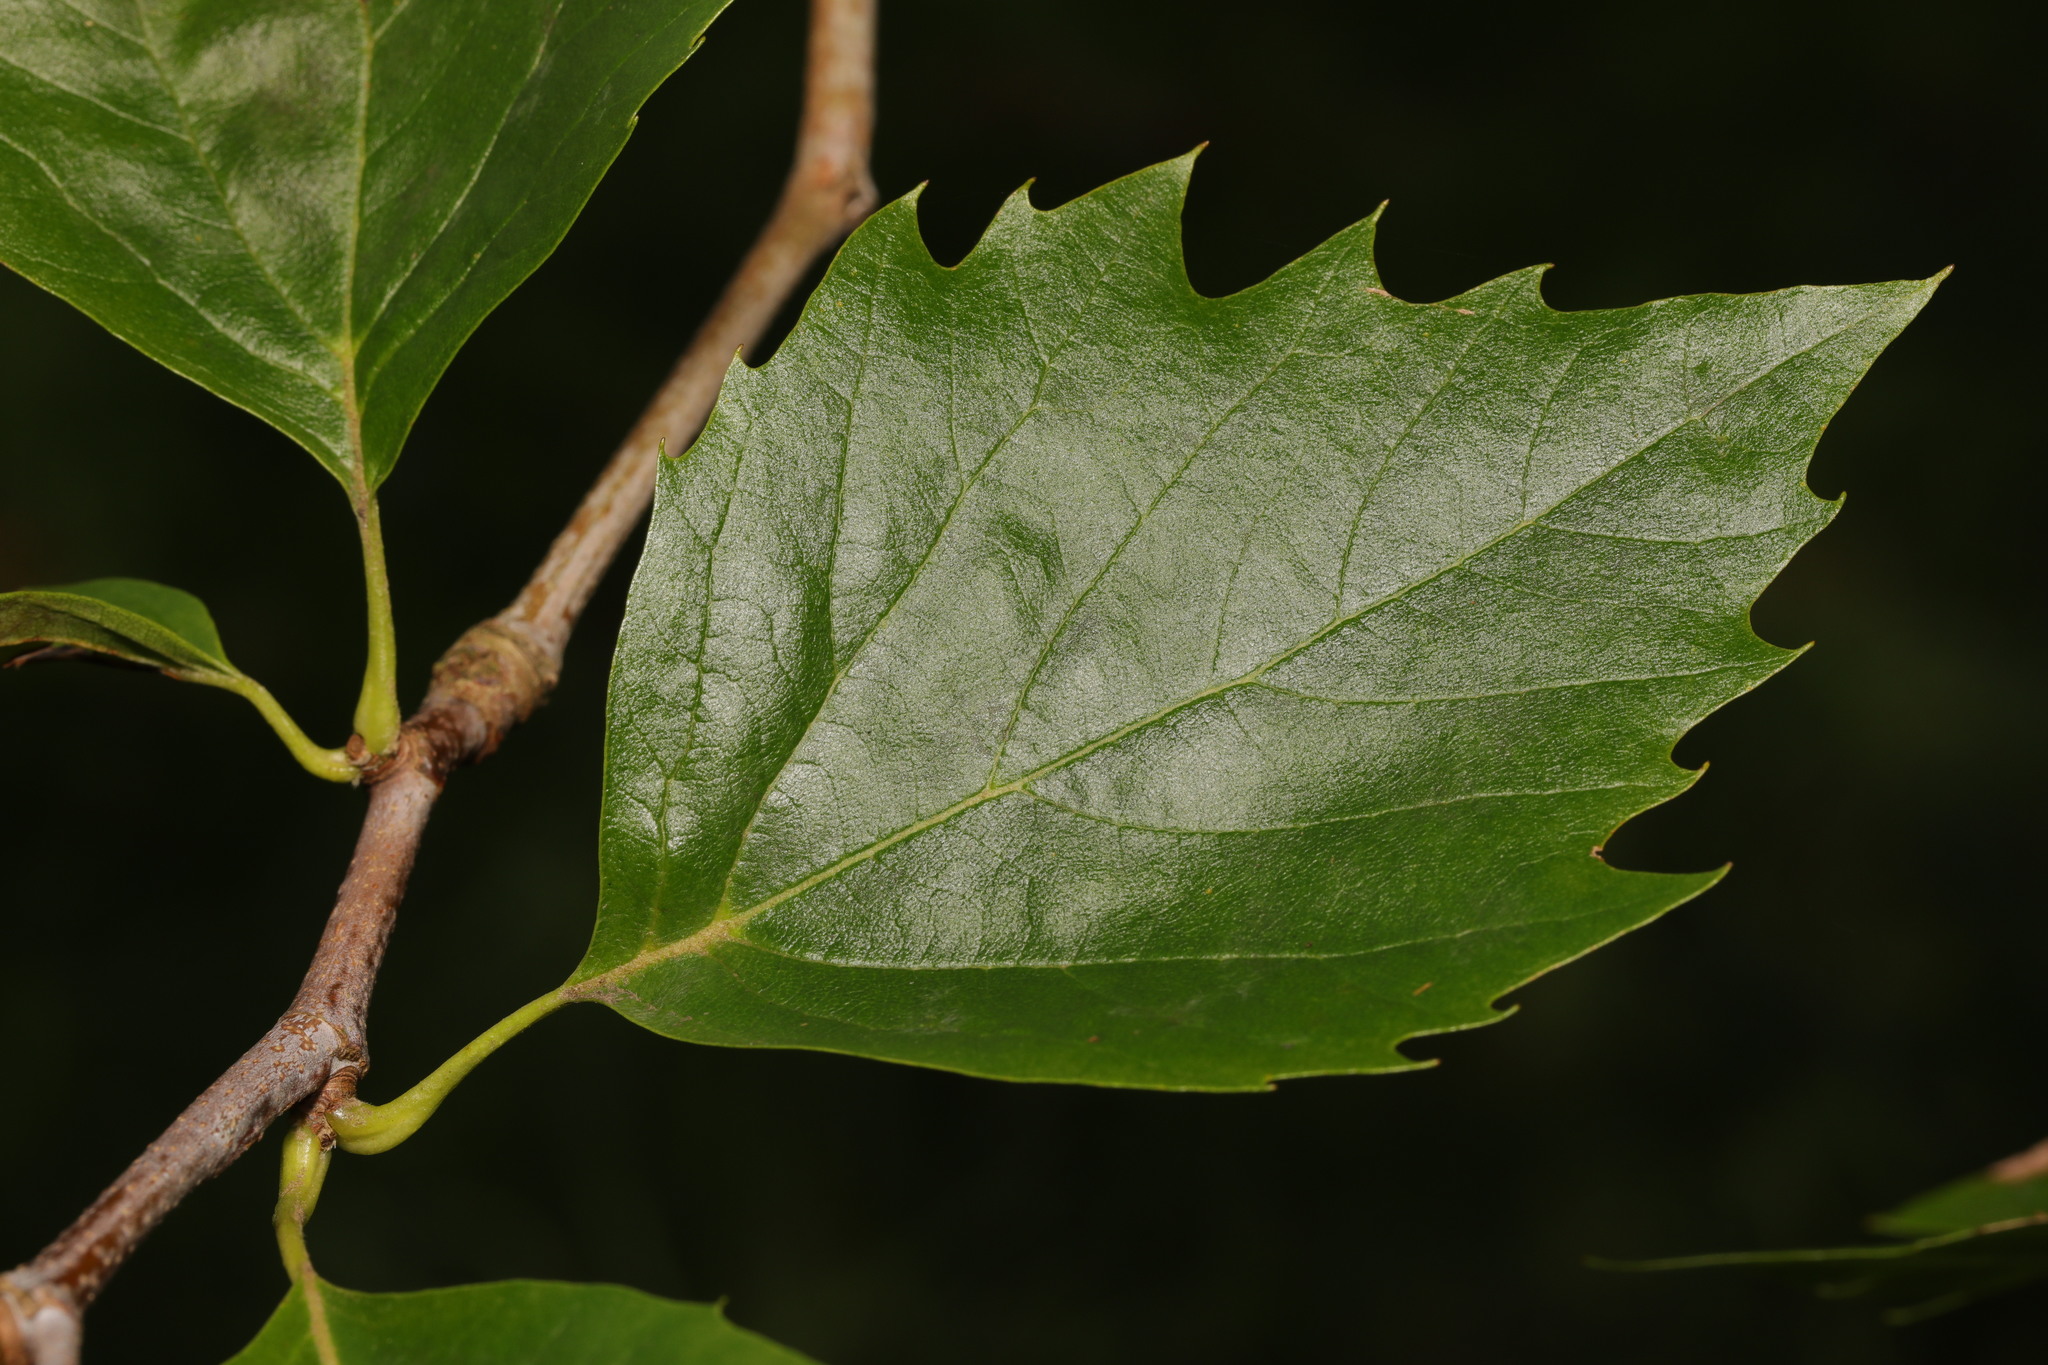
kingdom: Plantae
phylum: Tracheophyta
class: Magnoliopsida
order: Proteales
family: Platanaceae
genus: Platanus
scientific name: Platanus hispanica
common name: London plane
